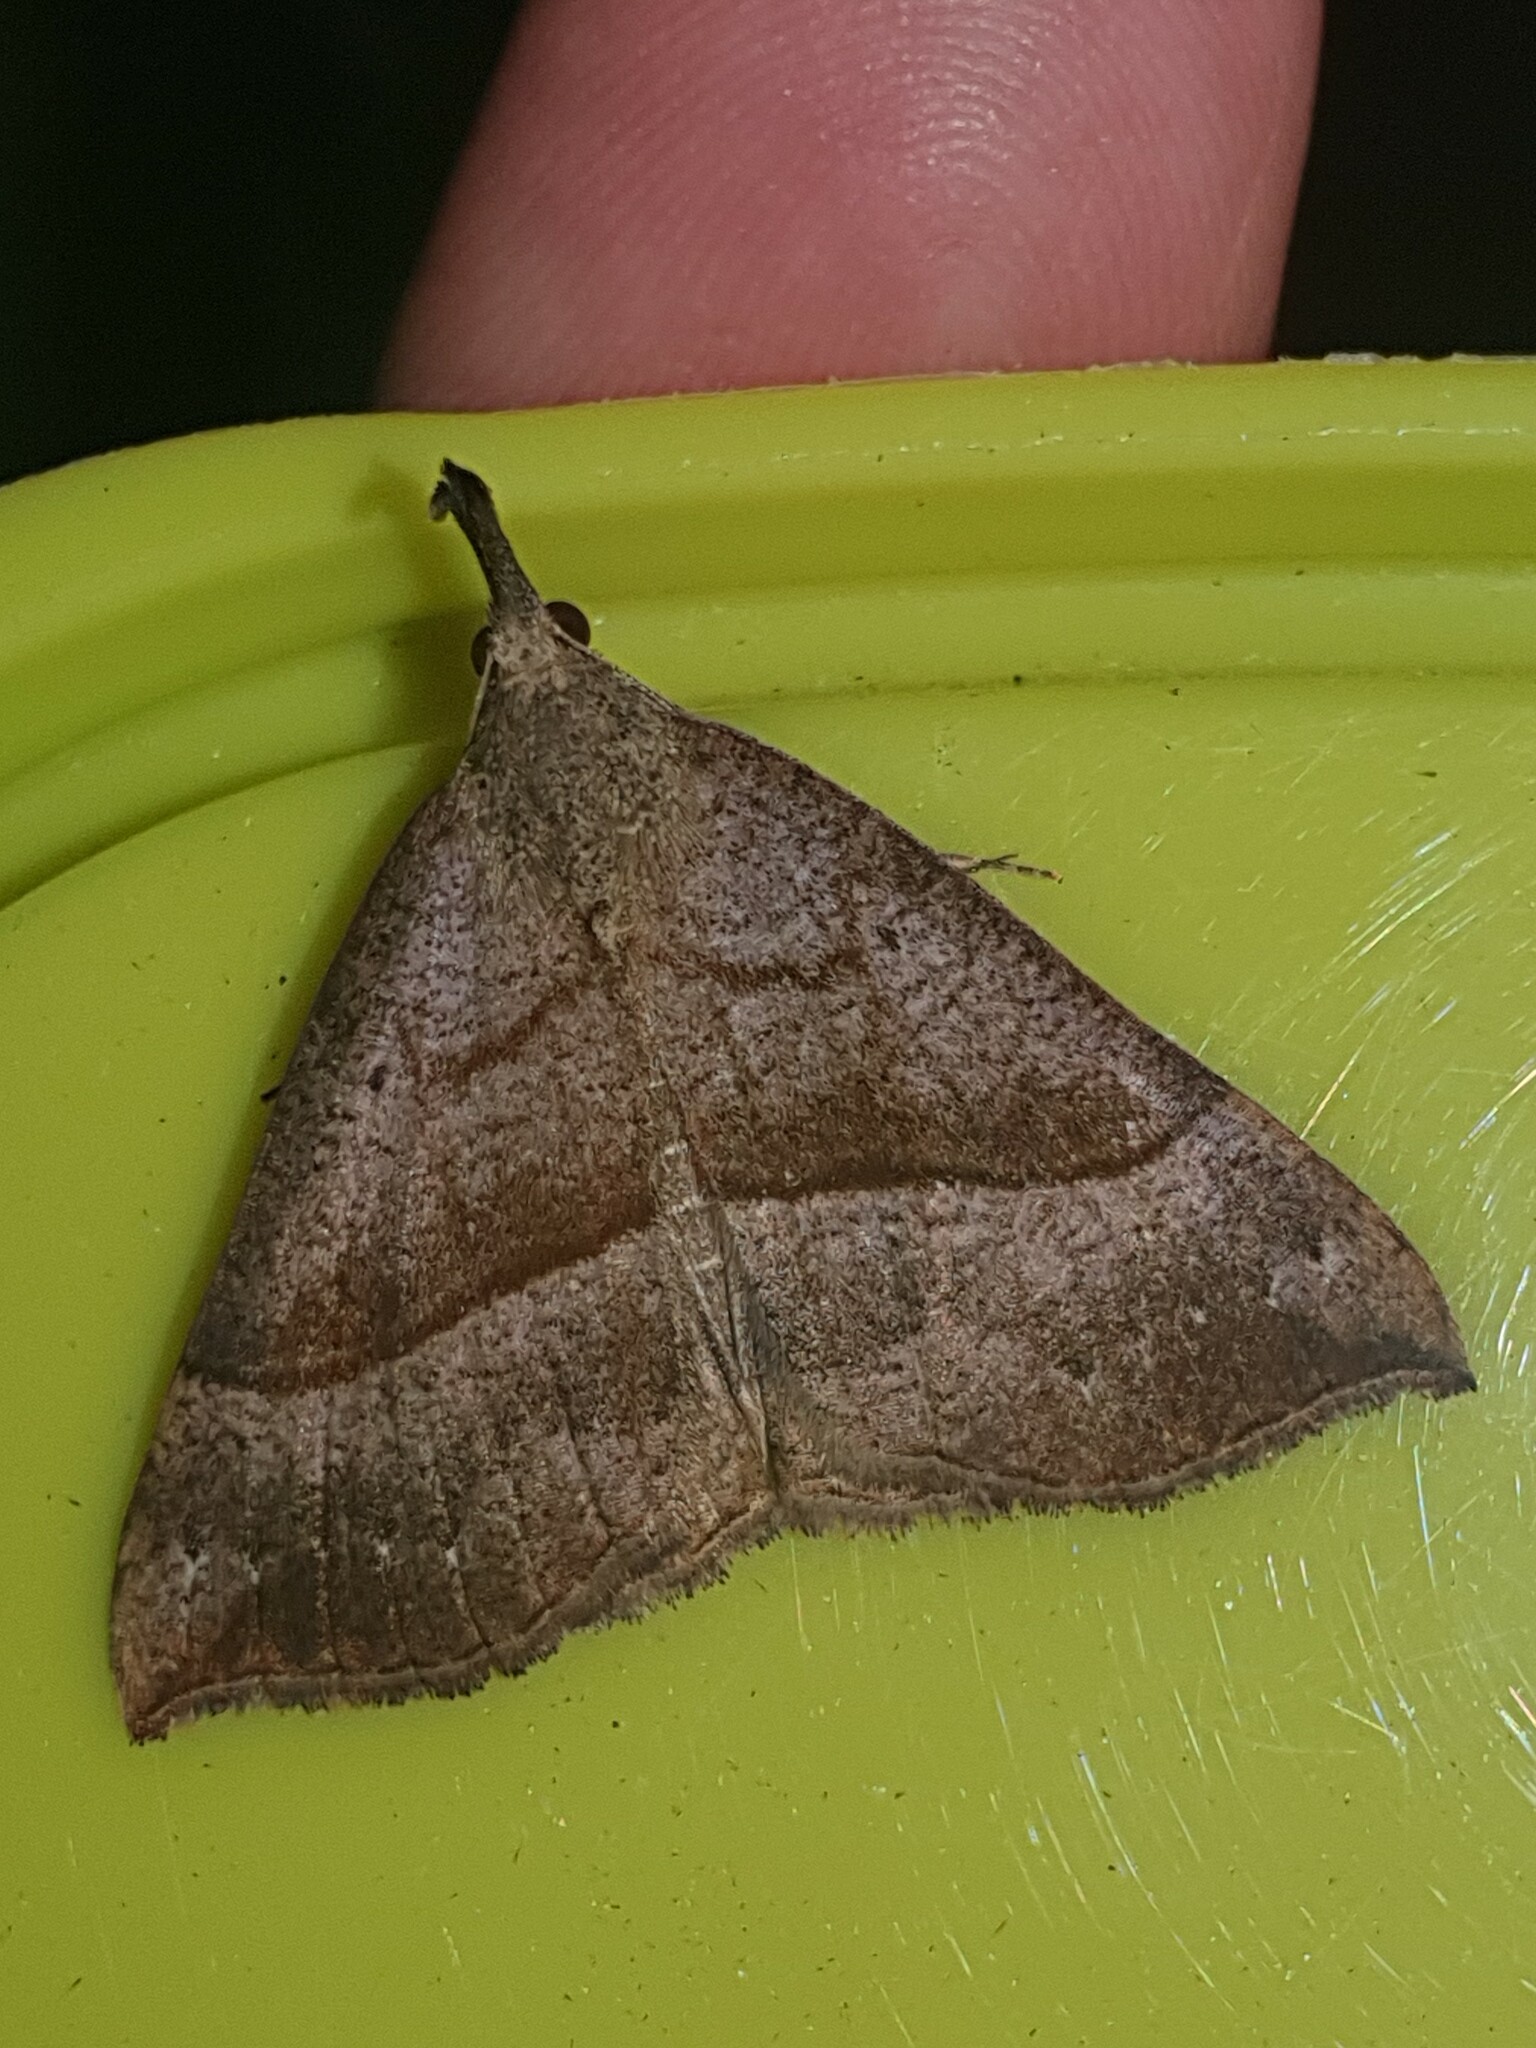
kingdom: Animalia
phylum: Arthropoda
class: Insecta
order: Lepidoptera
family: Erebidae
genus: Hypena
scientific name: Hypena proboscidalis
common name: Snout
